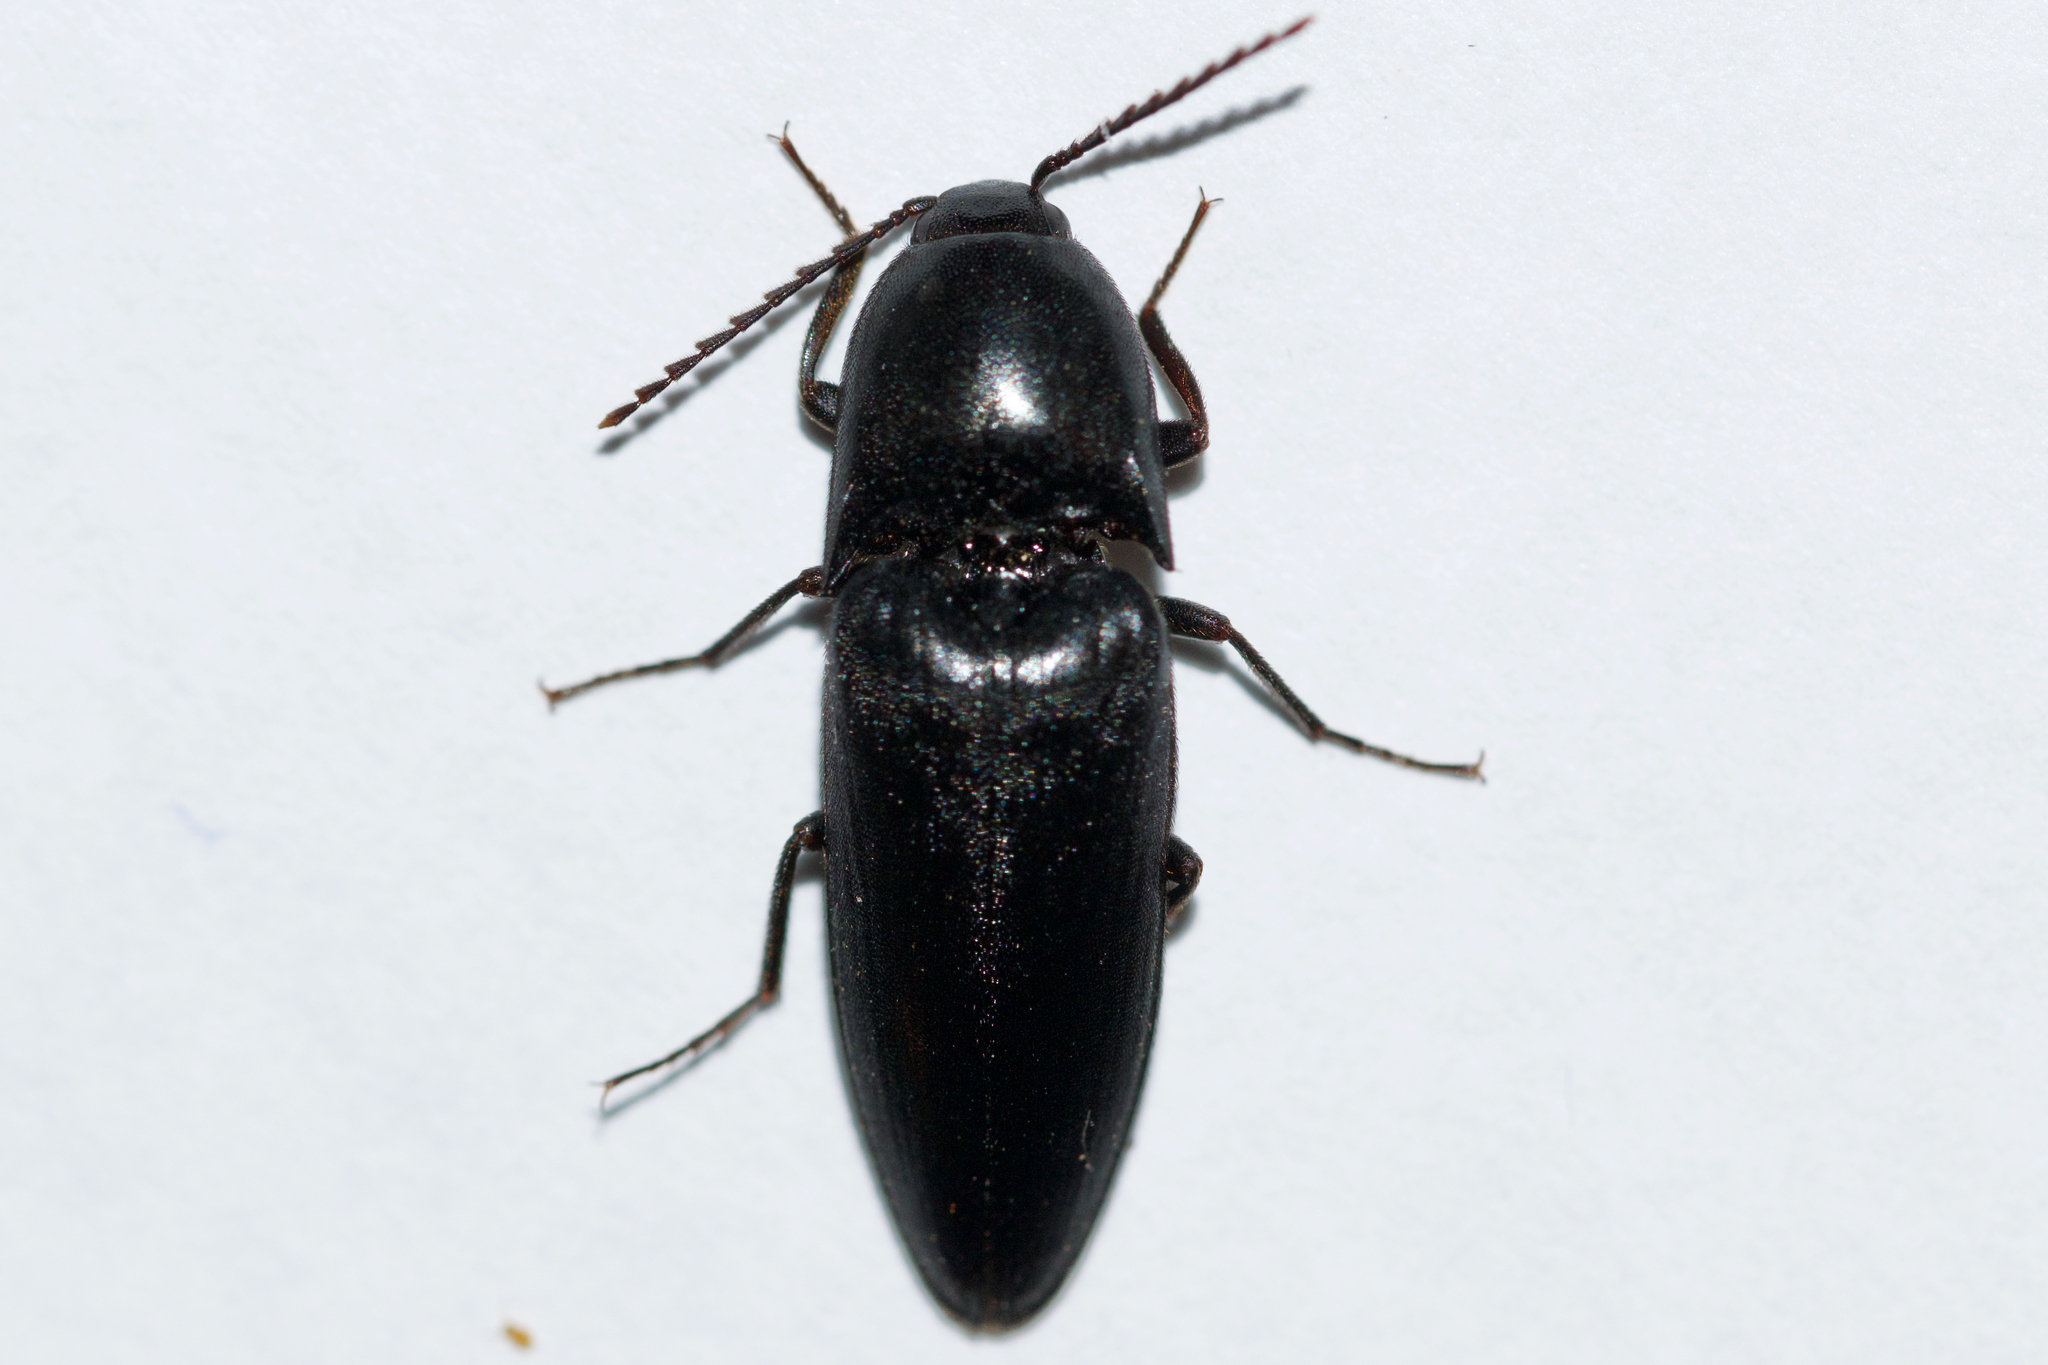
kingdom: Animalia
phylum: Arthropoda
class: Insecta
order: Coleoptera
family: Elateridae
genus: Elater
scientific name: Elater abruptus
